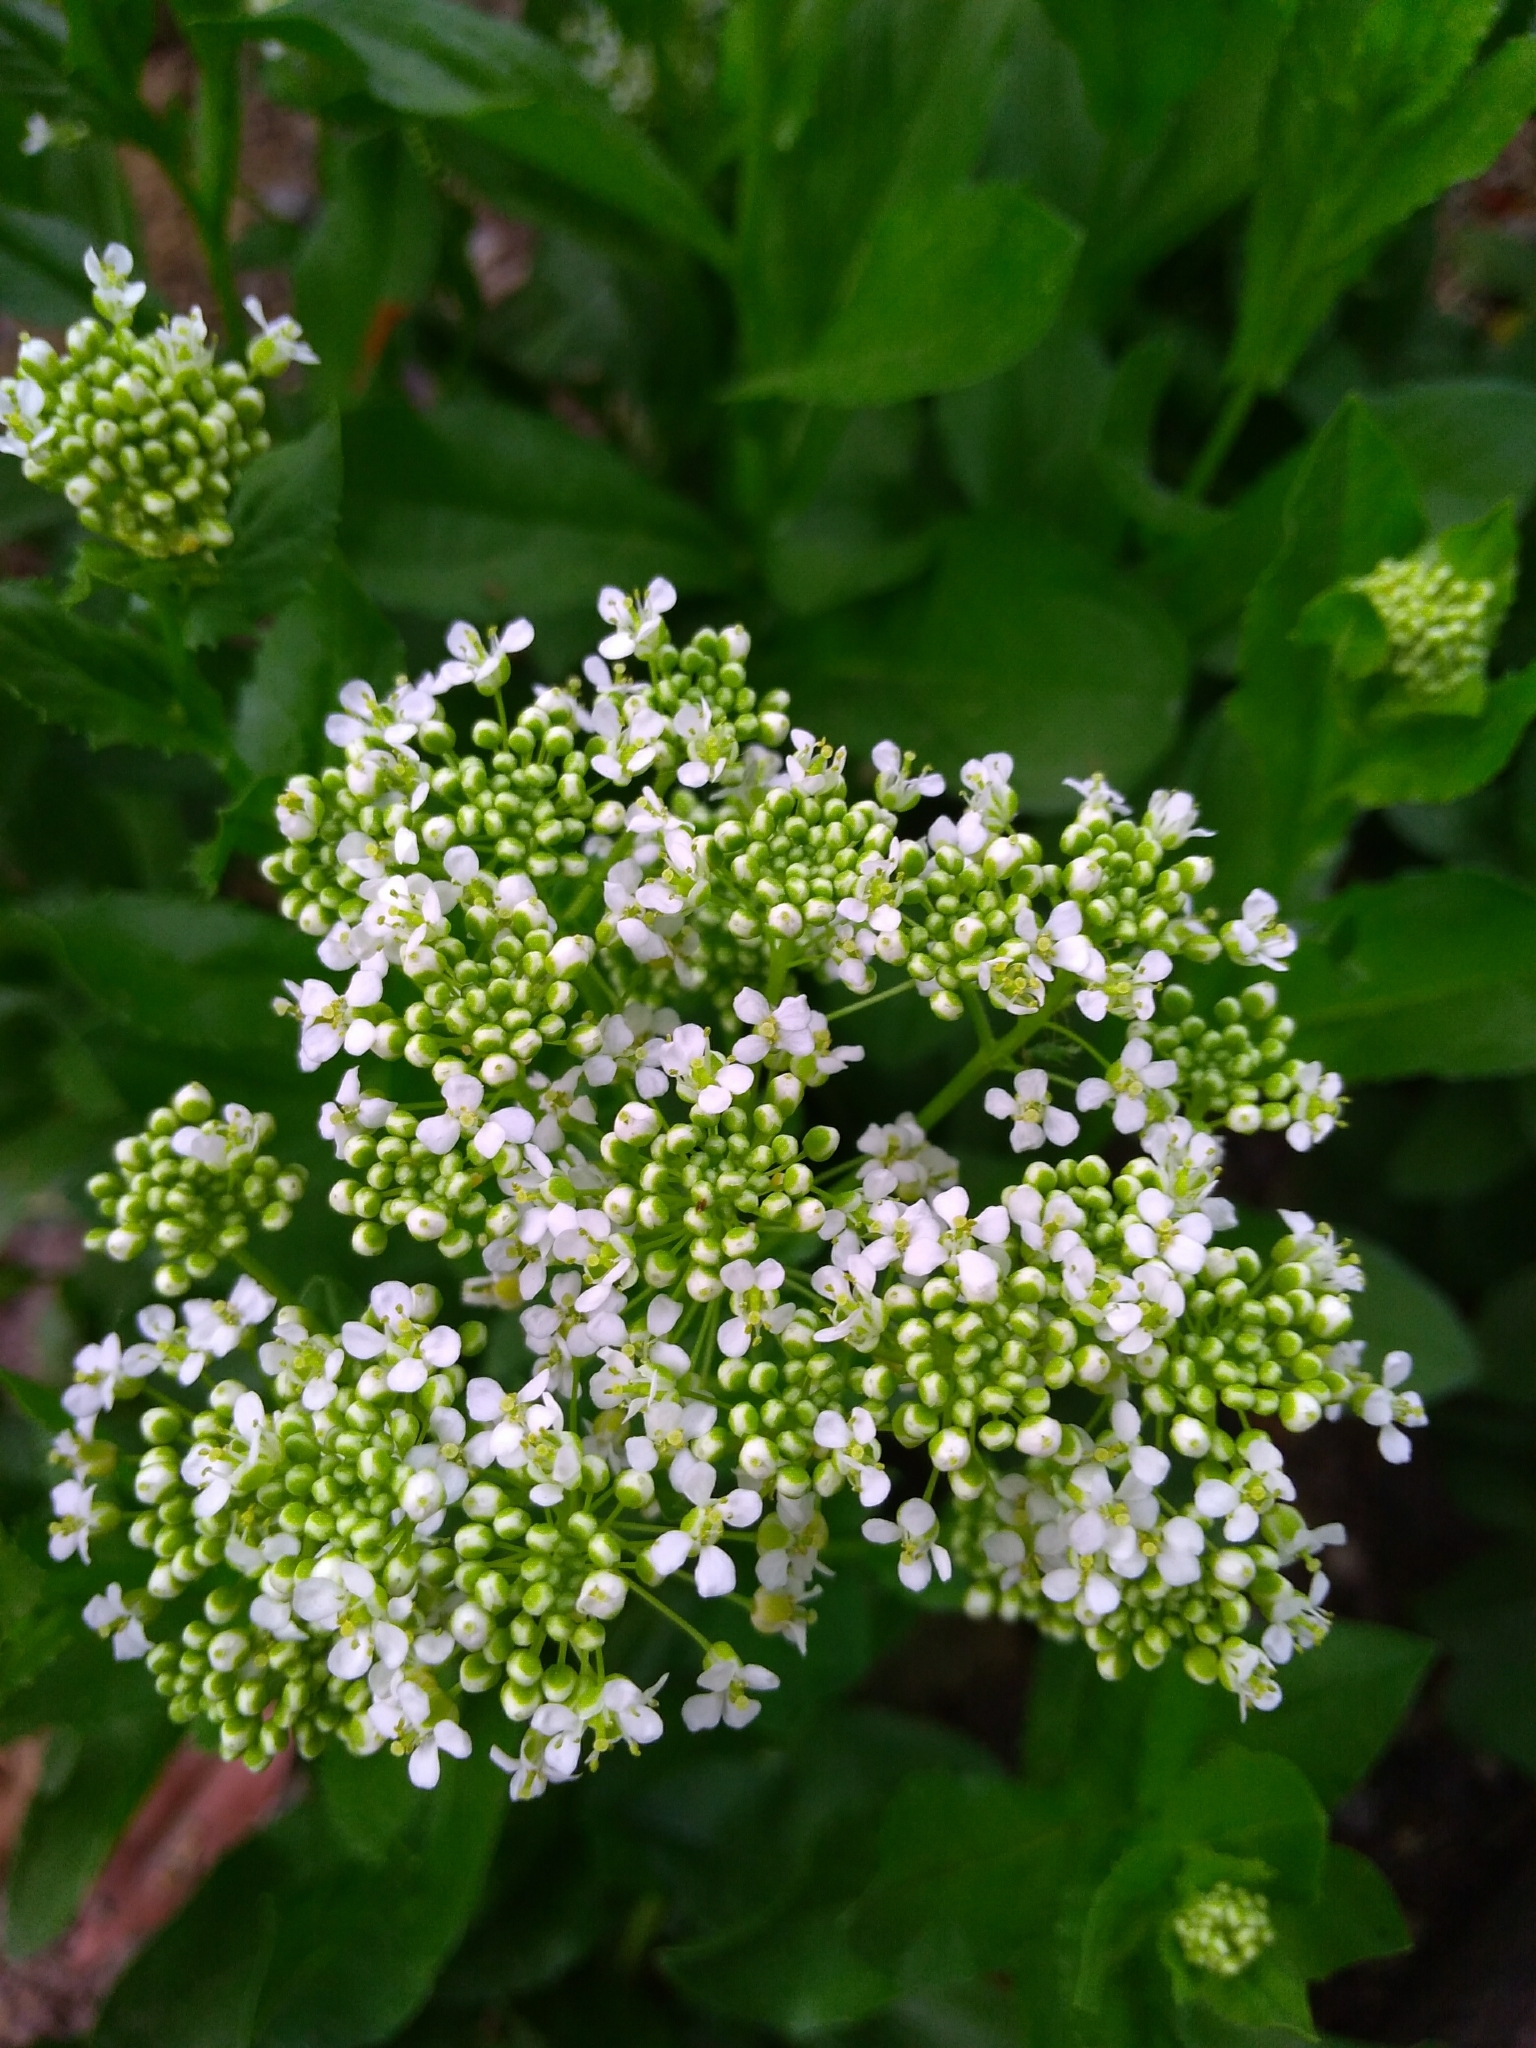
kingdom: Plantae
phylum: Tracheophyta
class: Magnoliopsida
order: Brassicales
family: Brassicaceae
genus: Lepidium
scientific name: Lepidium draba
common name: Hoary cress
